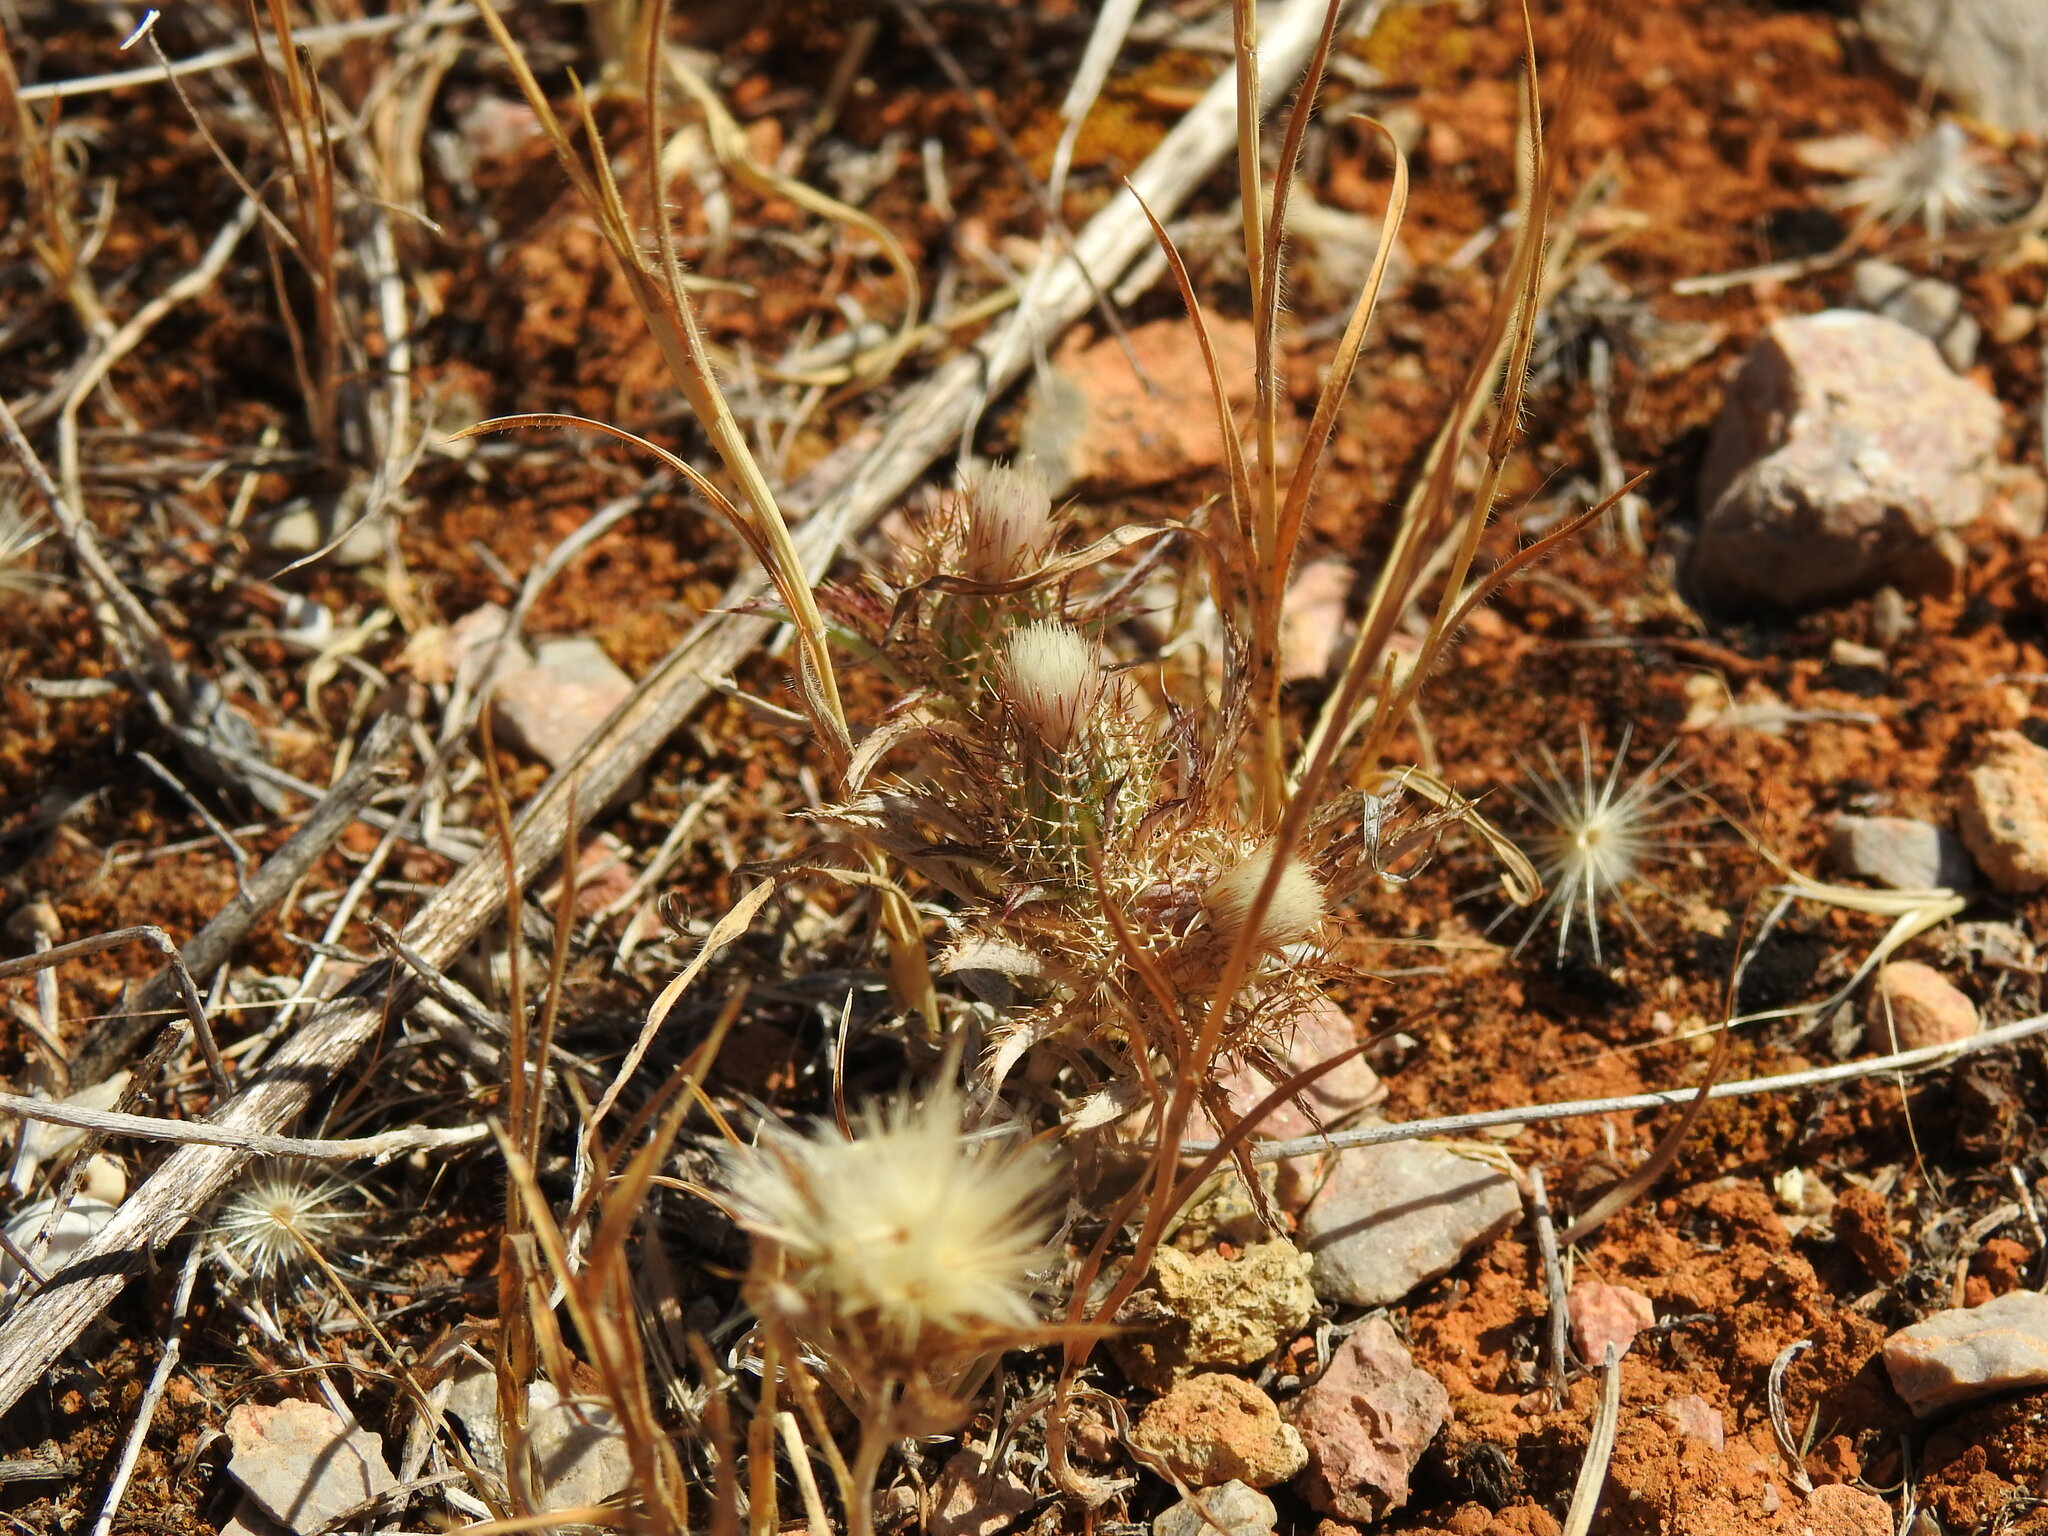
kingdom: Plantae
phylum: Tracheophyta
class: Magnoliopsida
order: Asterales
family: Asteraceae
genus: Atractylis
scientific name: Atractylis cancellata
